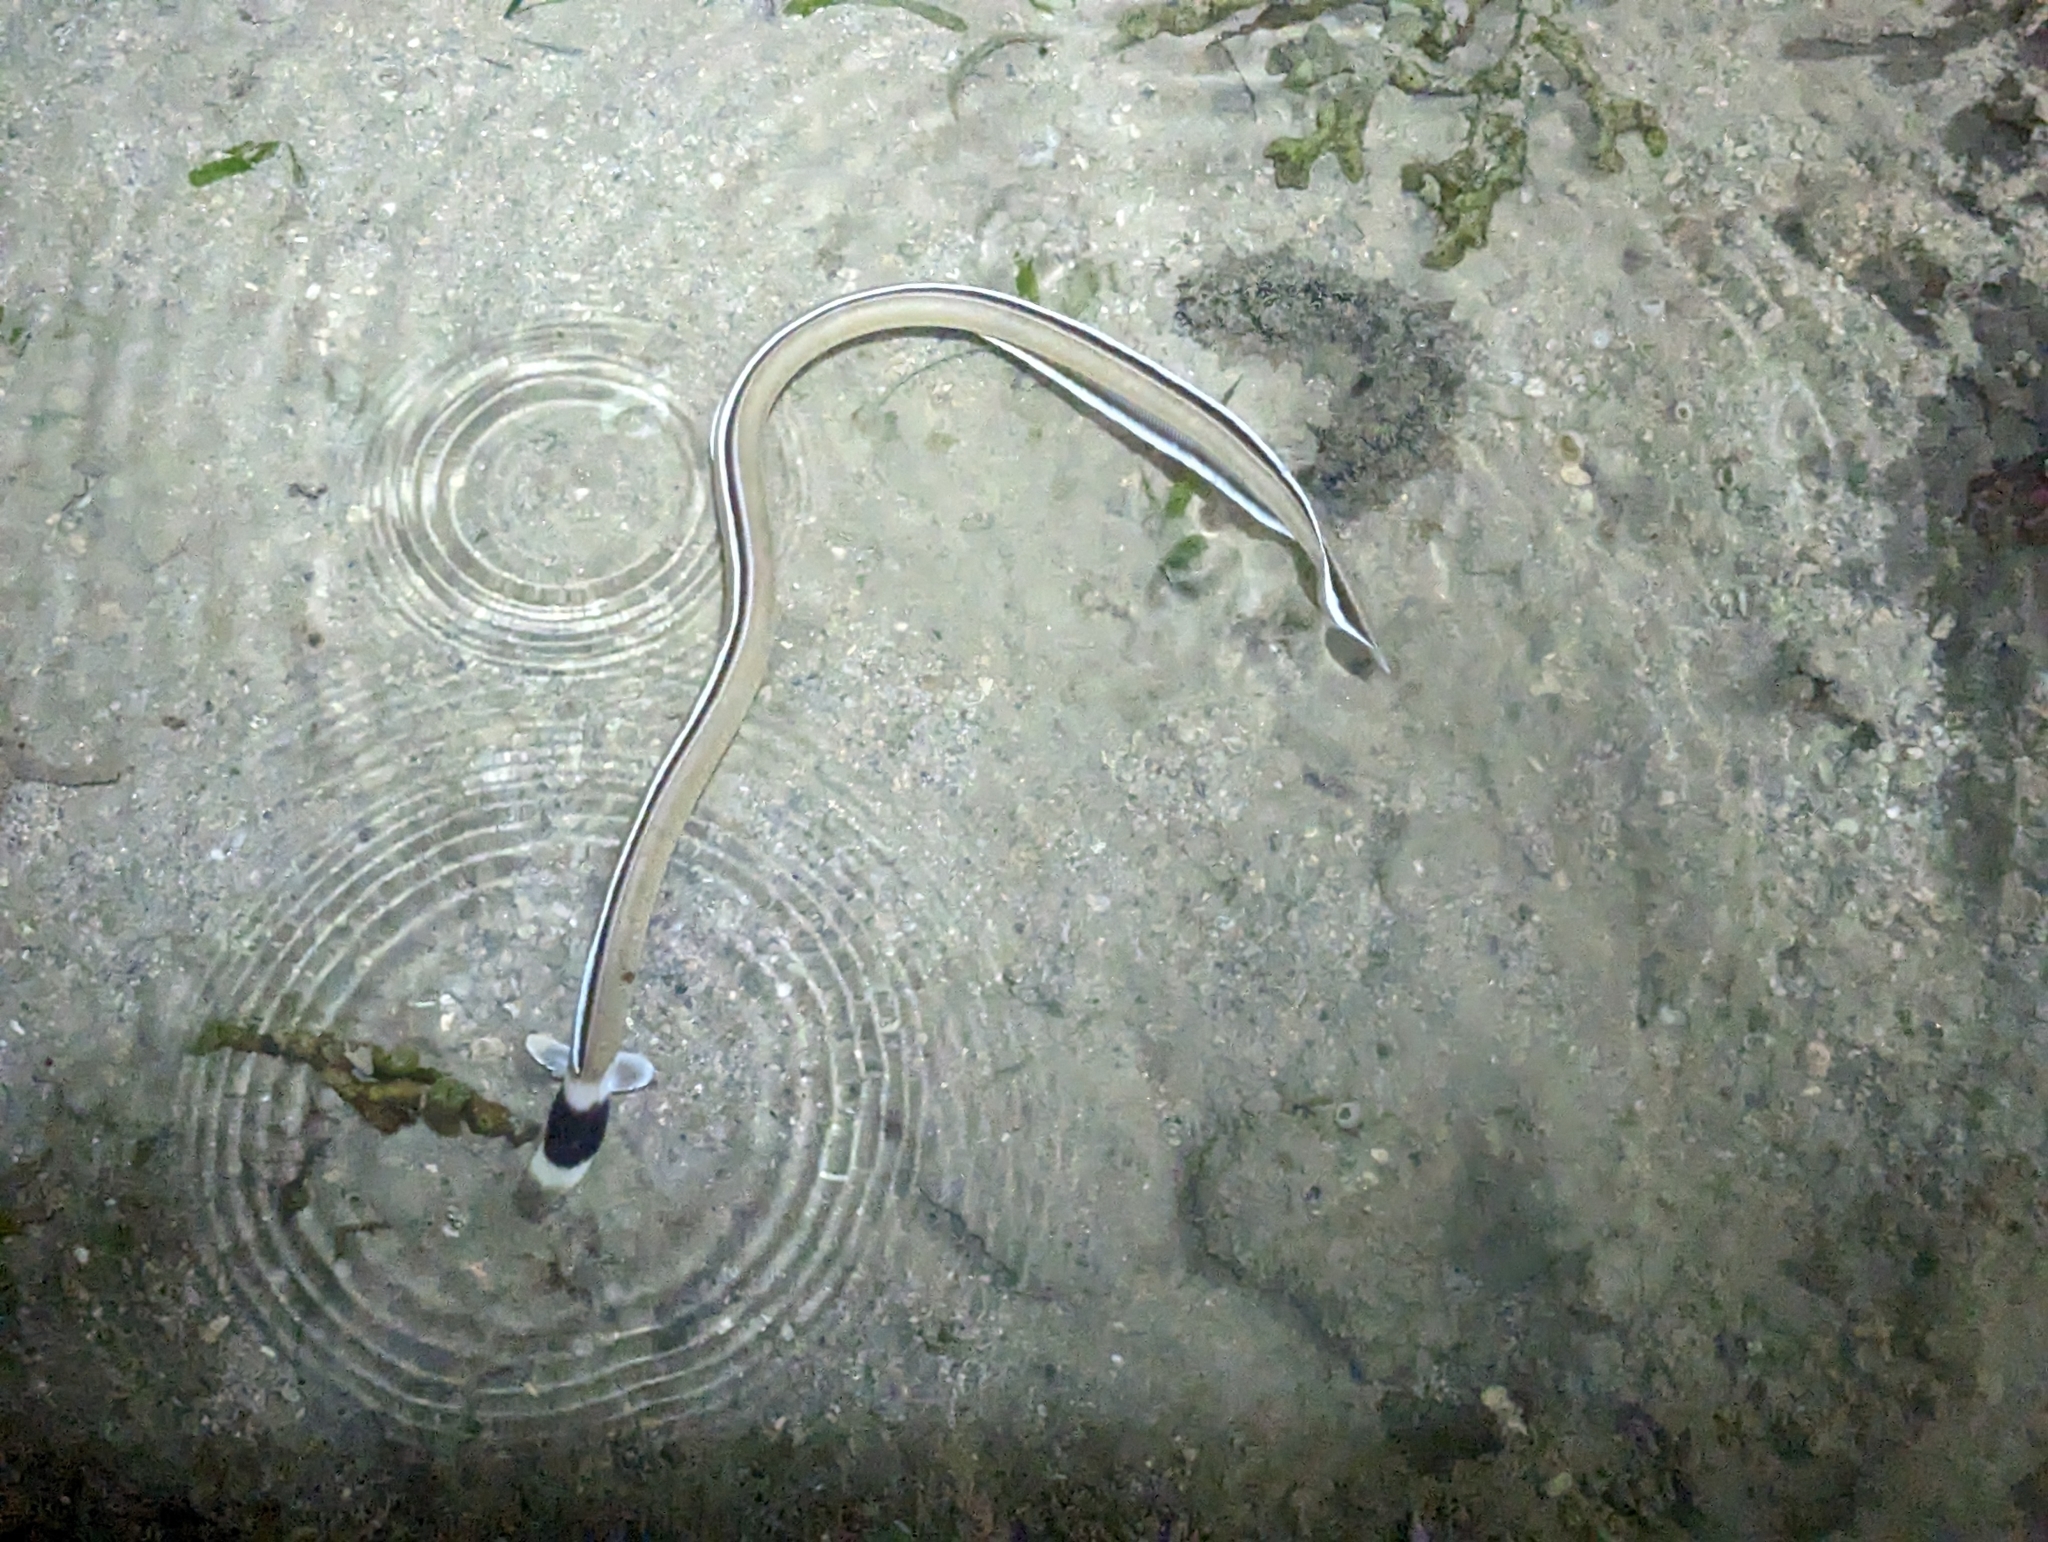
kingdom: Animalia
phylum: Chordata
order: Anguilliformes
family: Ophichthidae
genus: Ophichthus
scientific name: Ophichthus cephalozona
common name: Dark-shouldered snake eel
